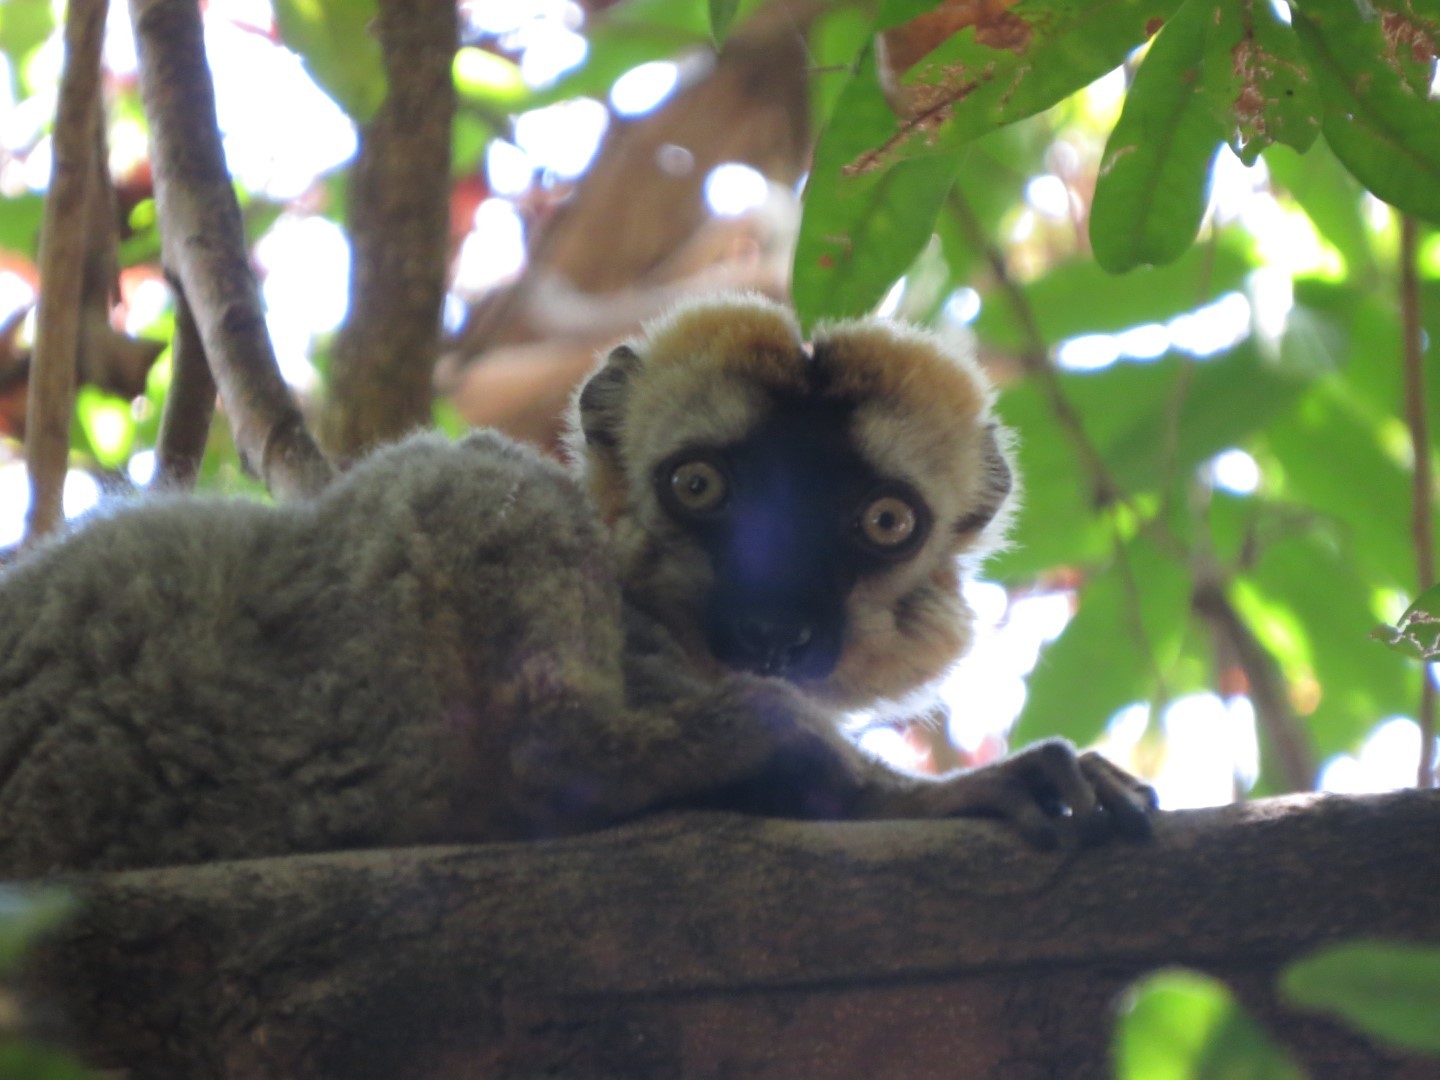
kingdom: Animalia
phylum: Chordata
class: Mammalia
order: Primates
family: Lemuridae
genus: Eulemur
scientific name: Eulemur rufus
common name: Red-fronted lemur
